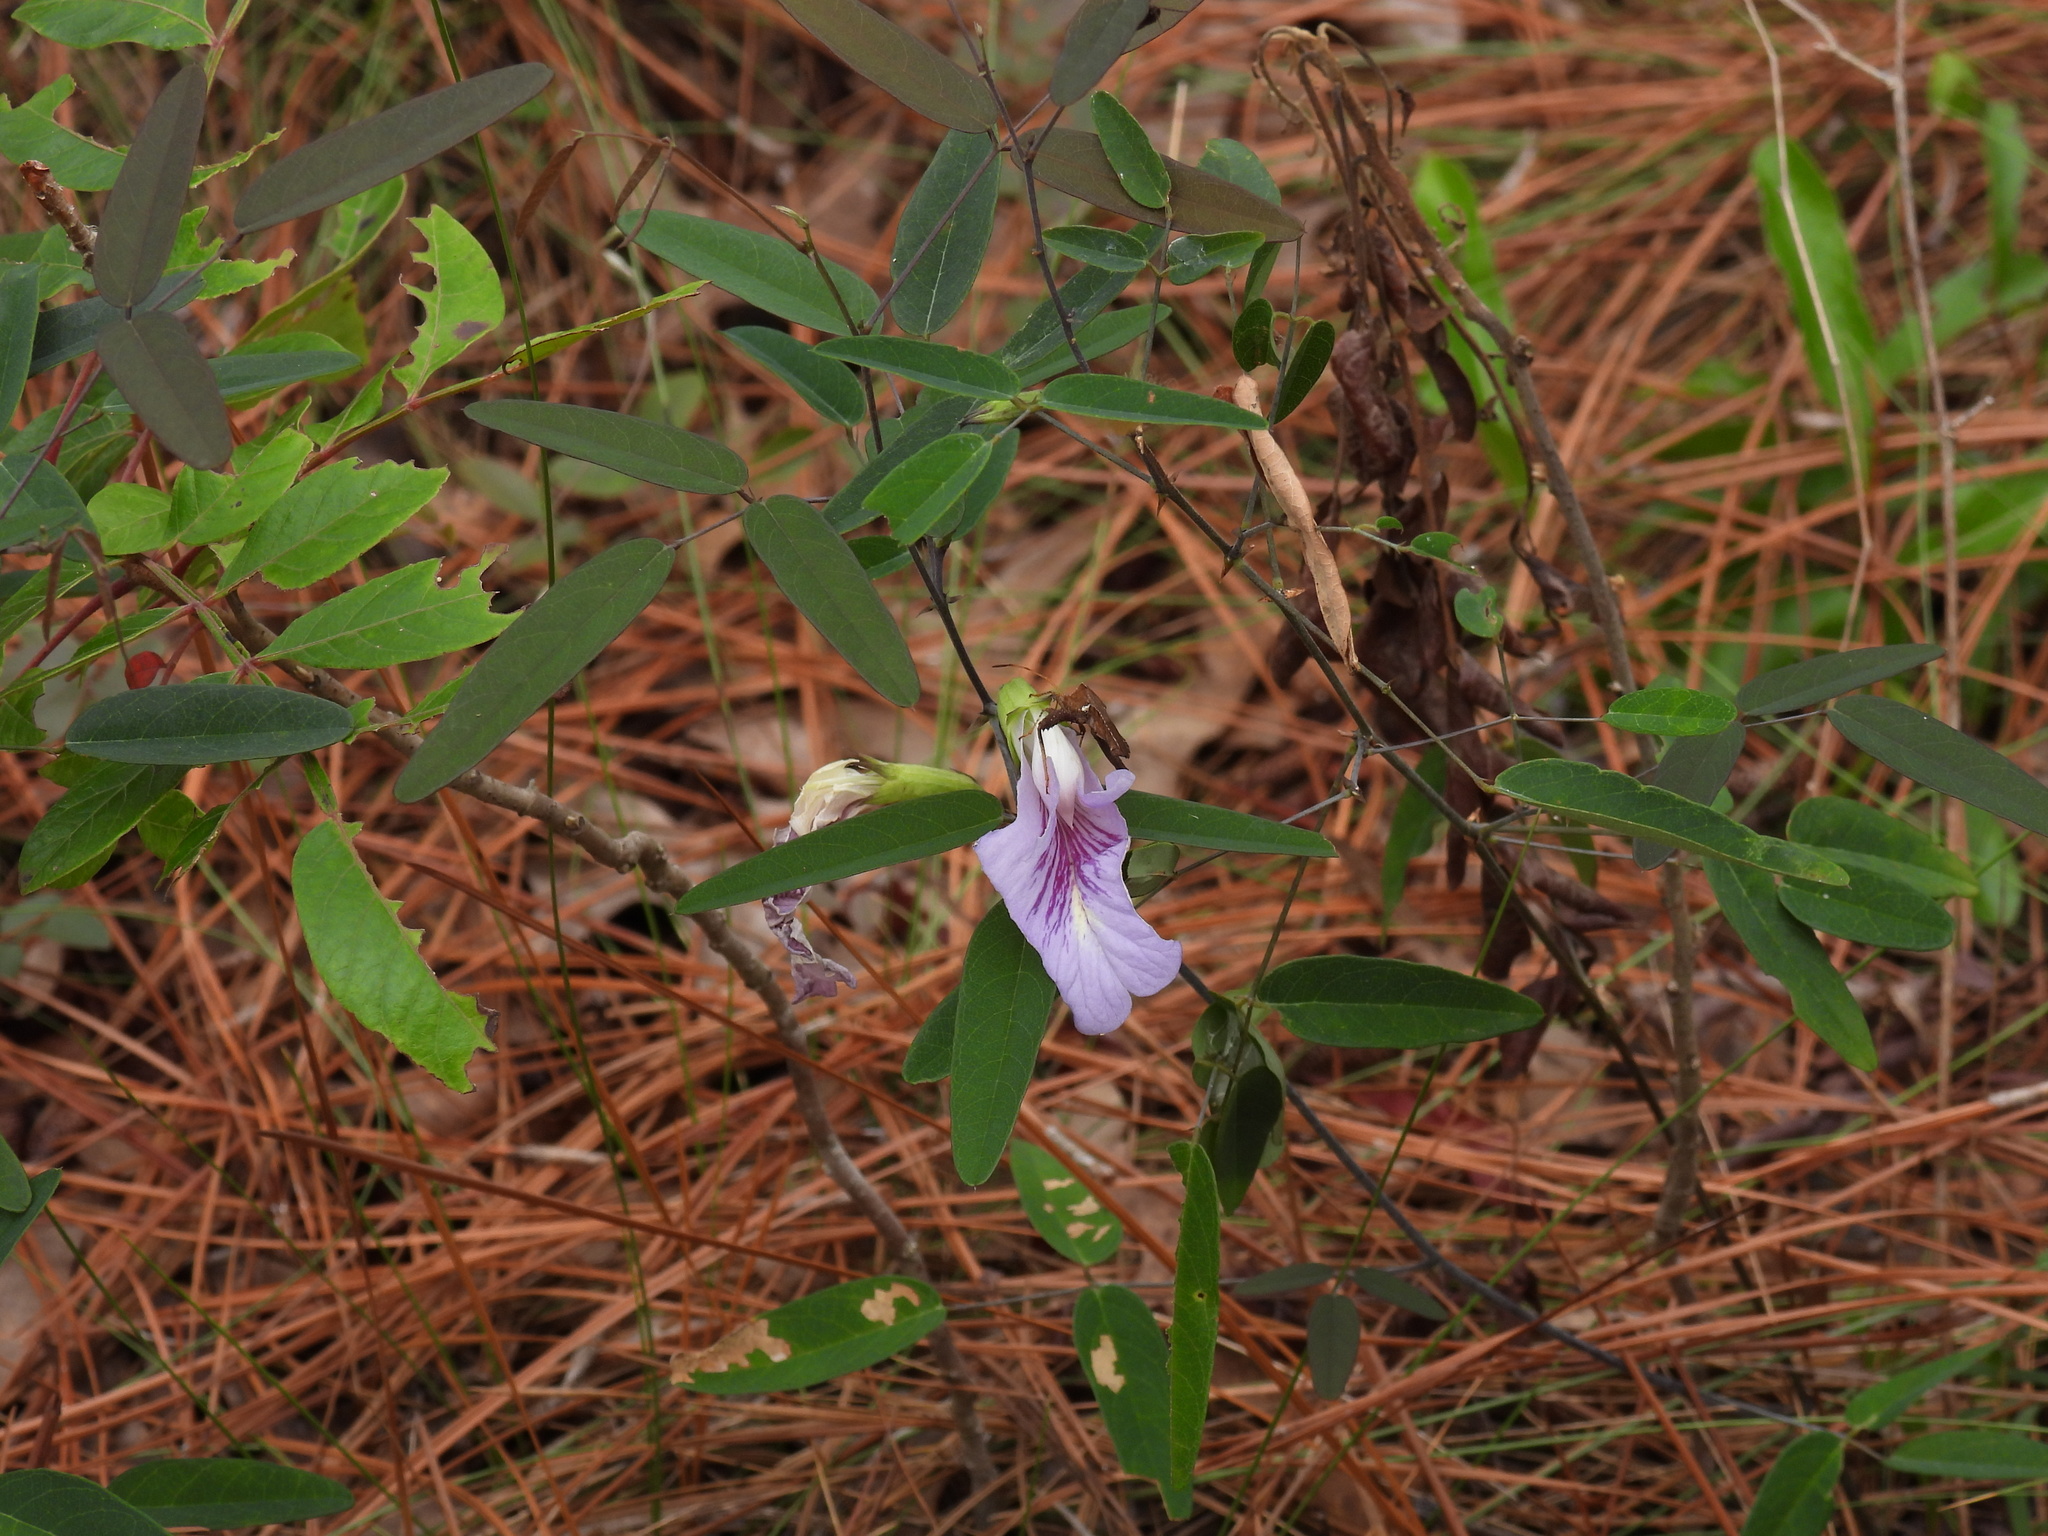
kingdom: Plantae
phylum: Tracheophyta
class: Magnoliopsida
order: Fabales
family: Fabaceae
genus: Clitoria
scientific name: Clitoria fragrans
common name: Pigeon-wings
